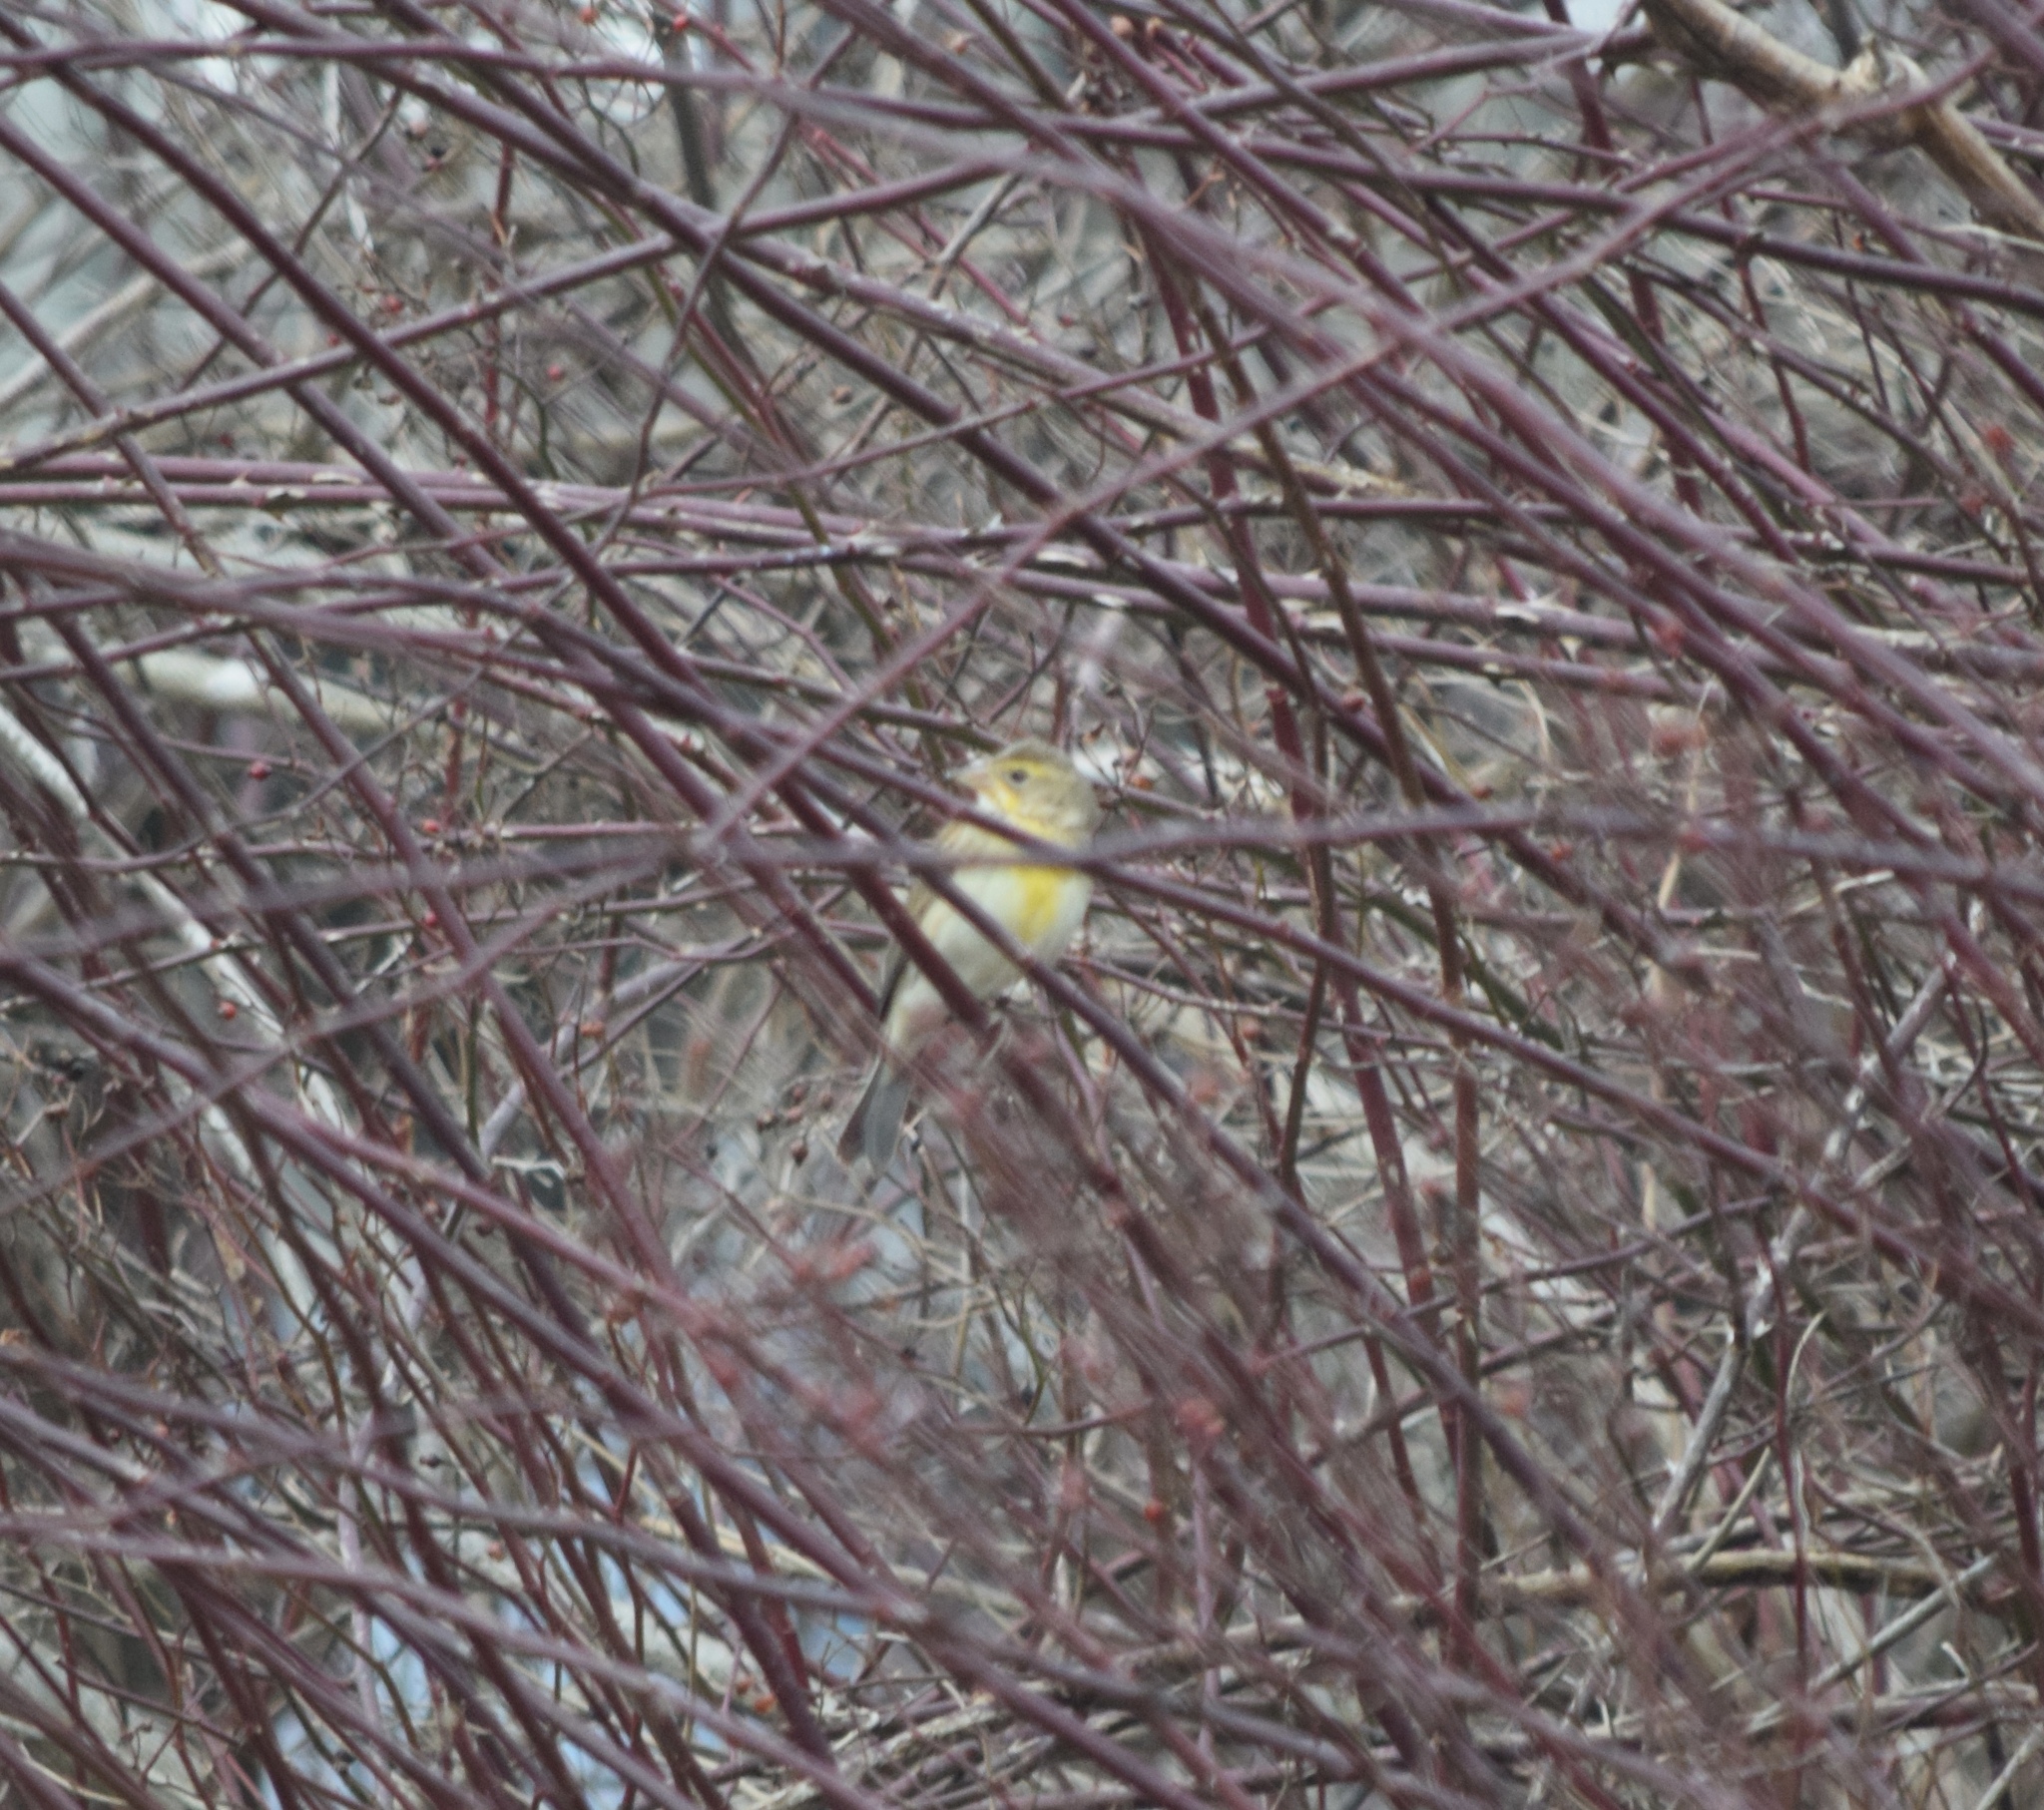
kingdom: Animalia
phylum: Chordata
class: Aves
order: Passeriformes
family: Cardinalidae
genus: Spiza
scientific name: Spiza americana
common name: Dickcissel
